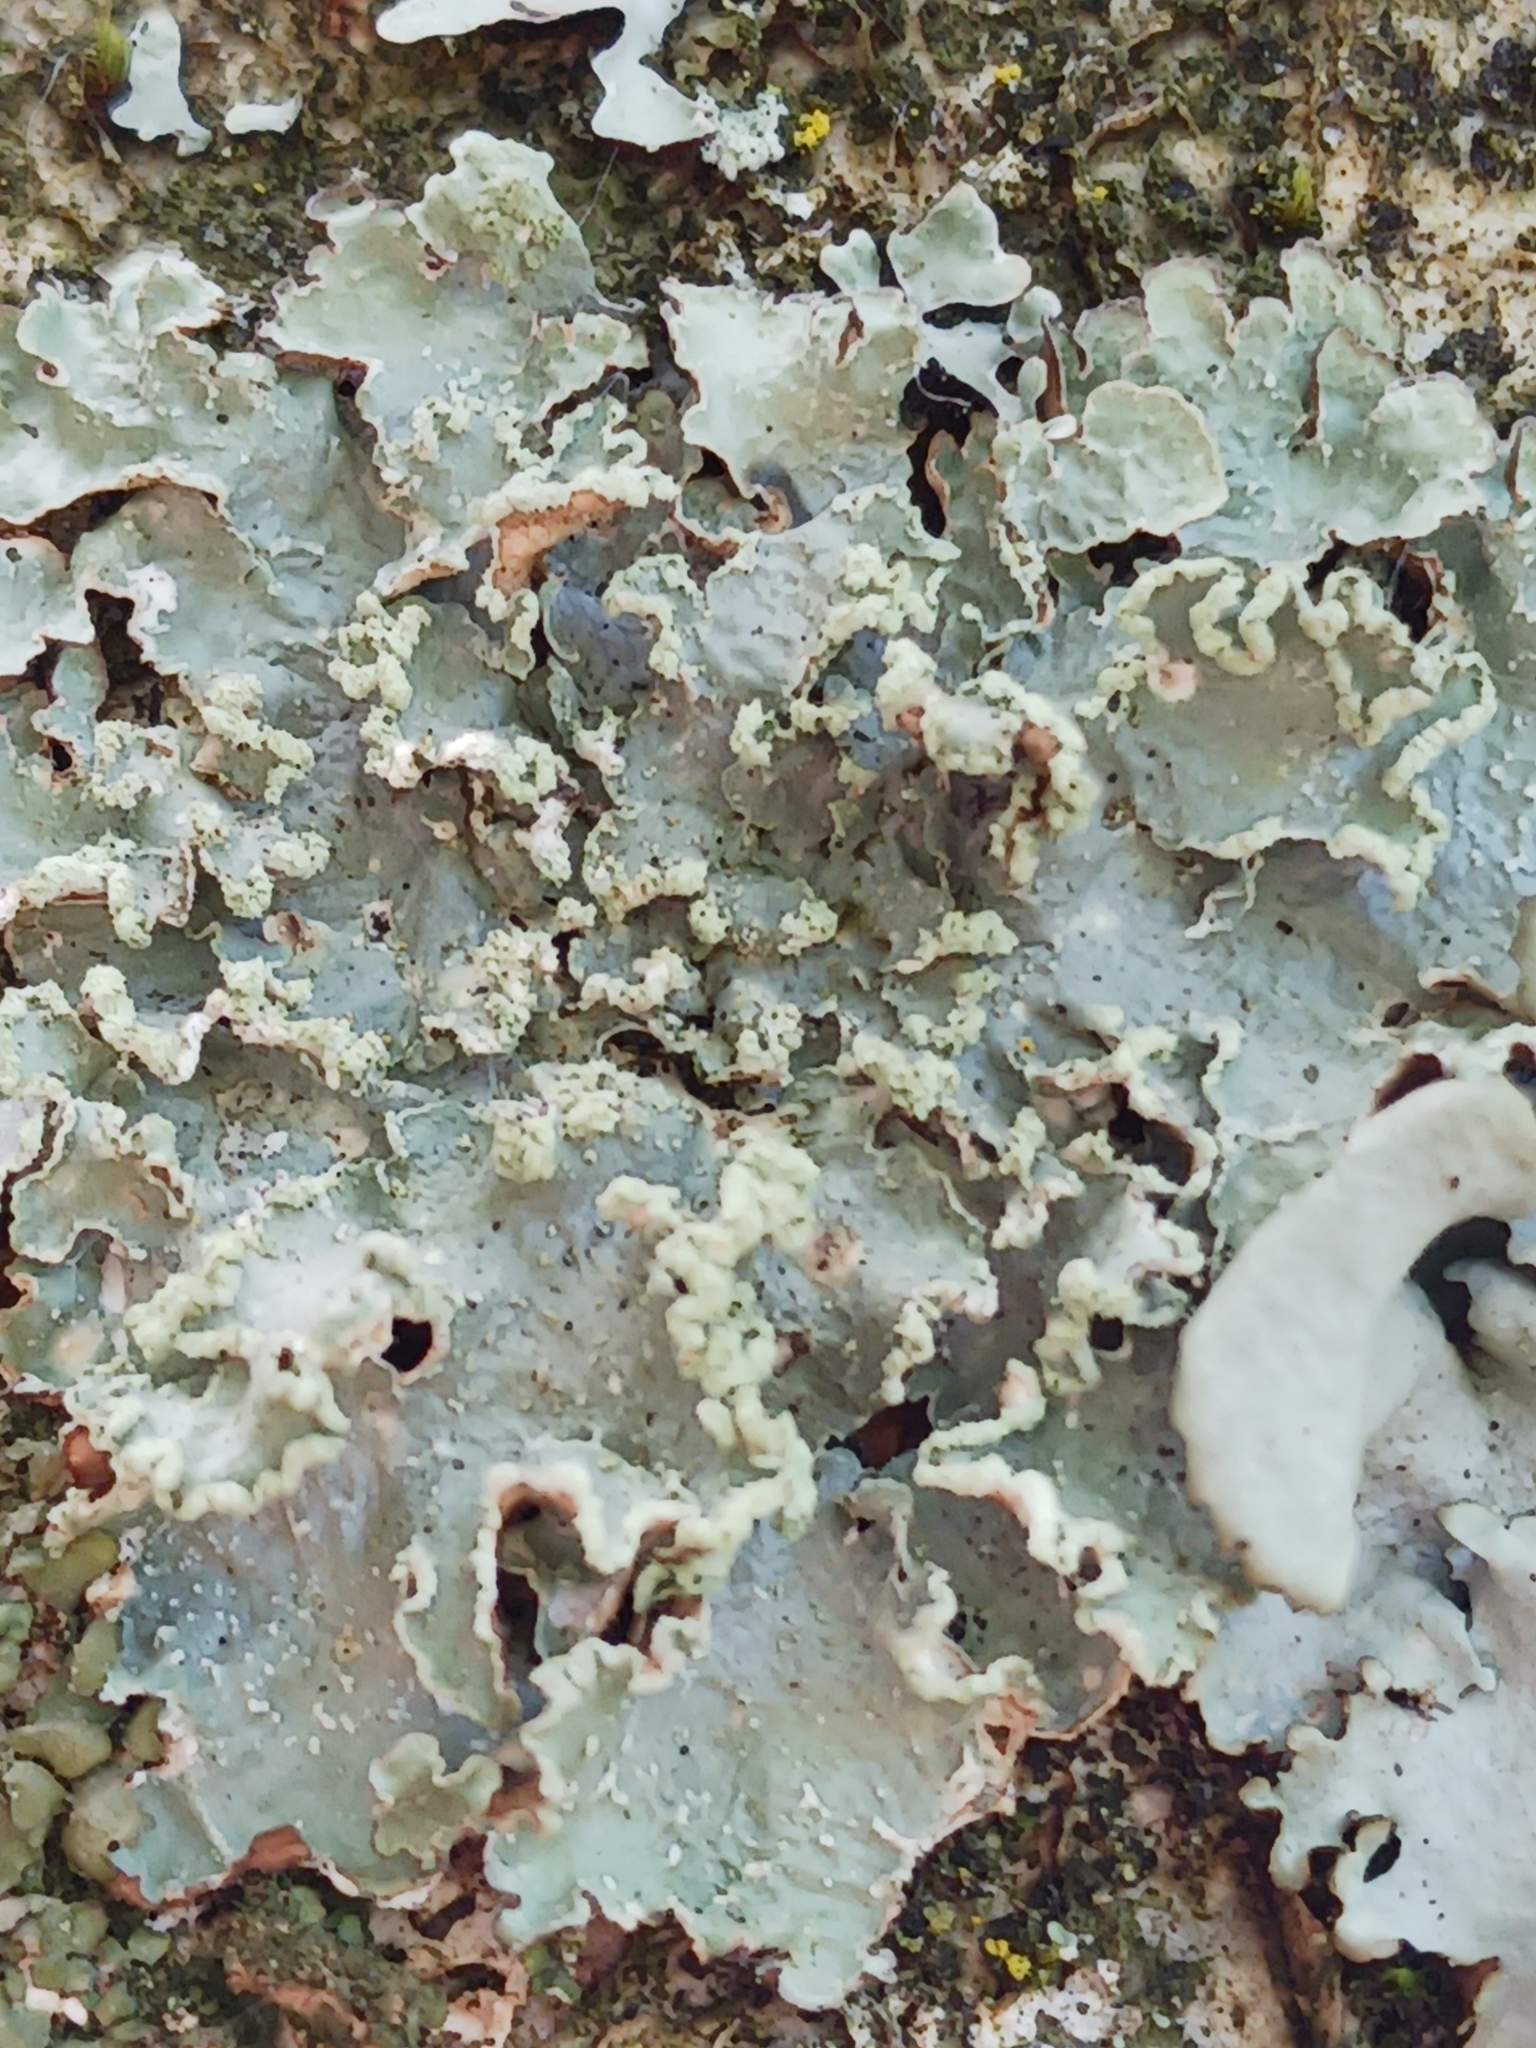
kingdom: Fungi
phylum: Ascomycota
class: Lecanoromycetes
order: Lecanorales
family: Parmeliaceae
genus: Punctelia
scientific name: Punctelia jeckeri
